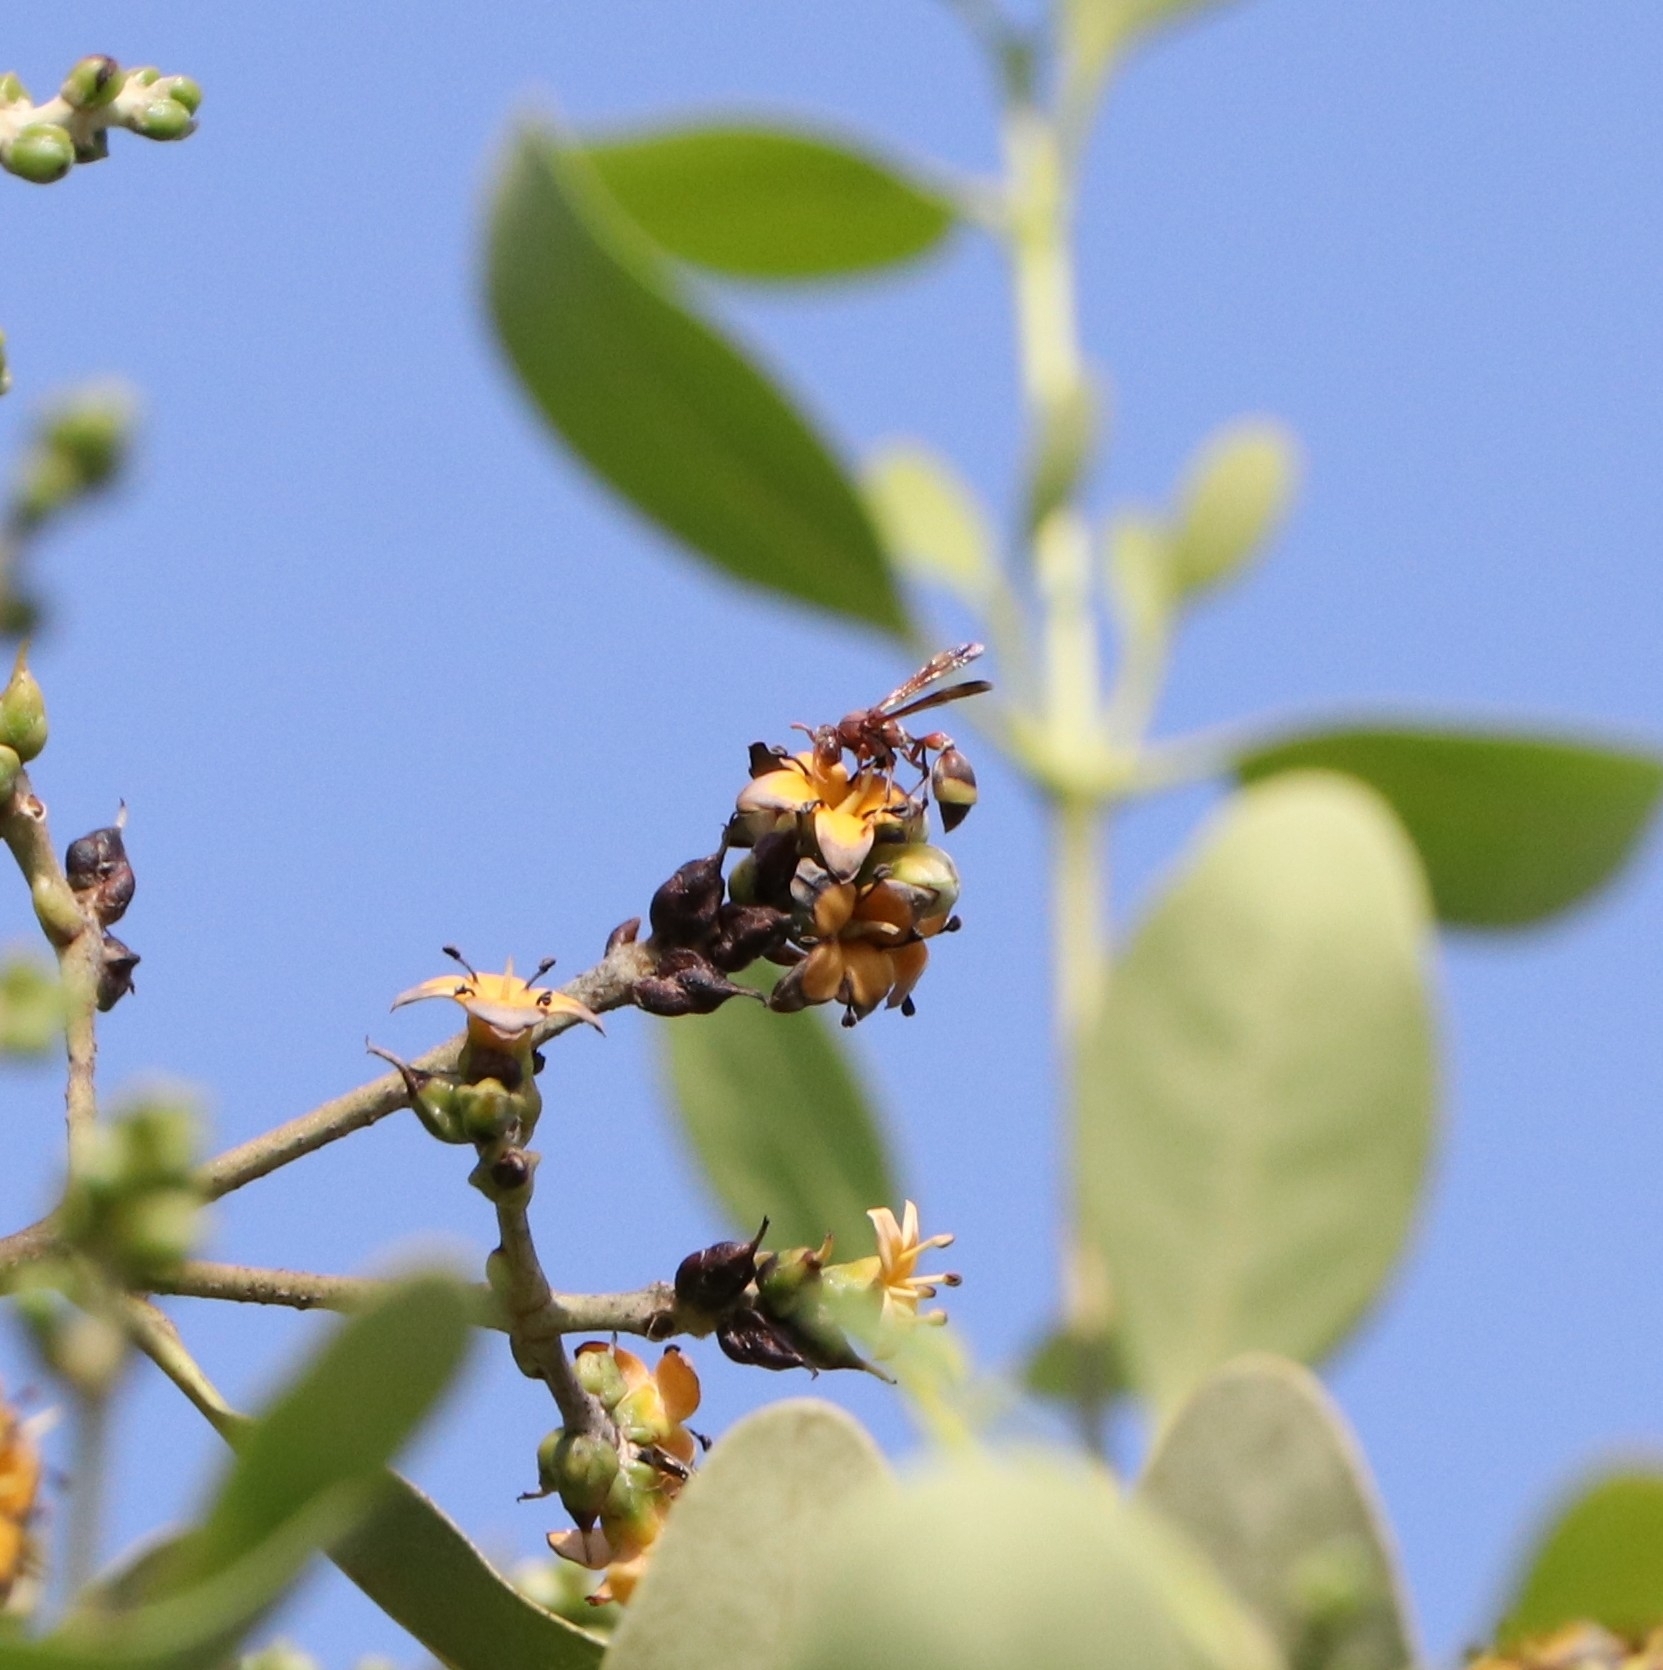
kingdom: Animalia
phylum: Arthropoda
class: Insecta
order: Hymenoptera
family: Vespidae
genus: Ropalidia
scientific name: Ropalidia
